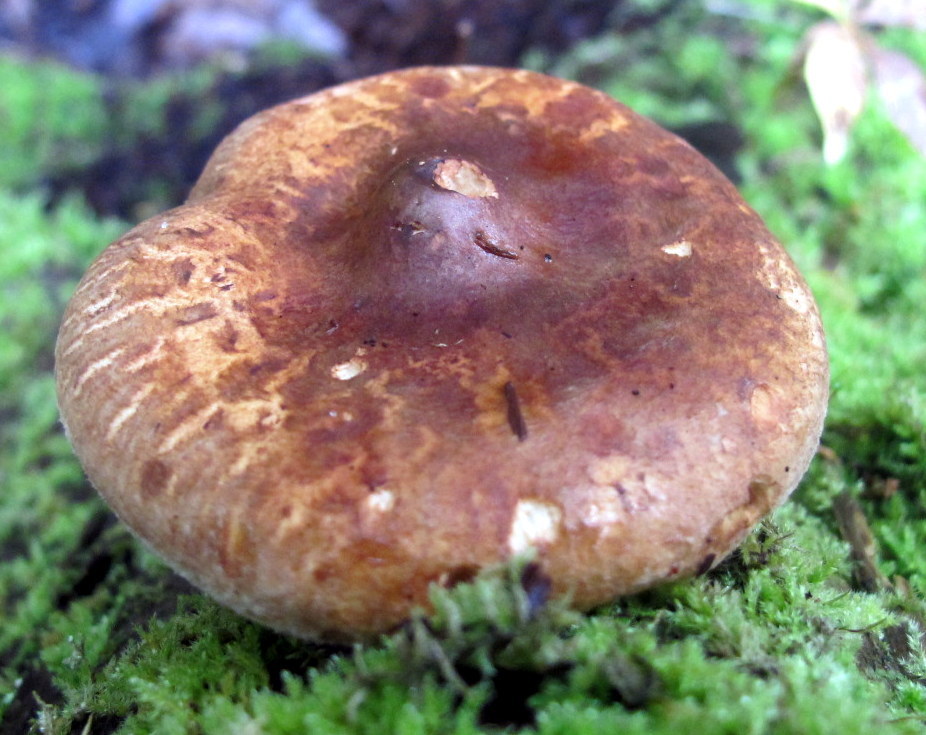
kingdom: Fungi
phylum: Basidiomycota
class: Agaricomycetes
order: Boletales
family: Paxillaceae
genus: Paxillus
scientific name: Paxillus involutus
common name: Brown roll rim
